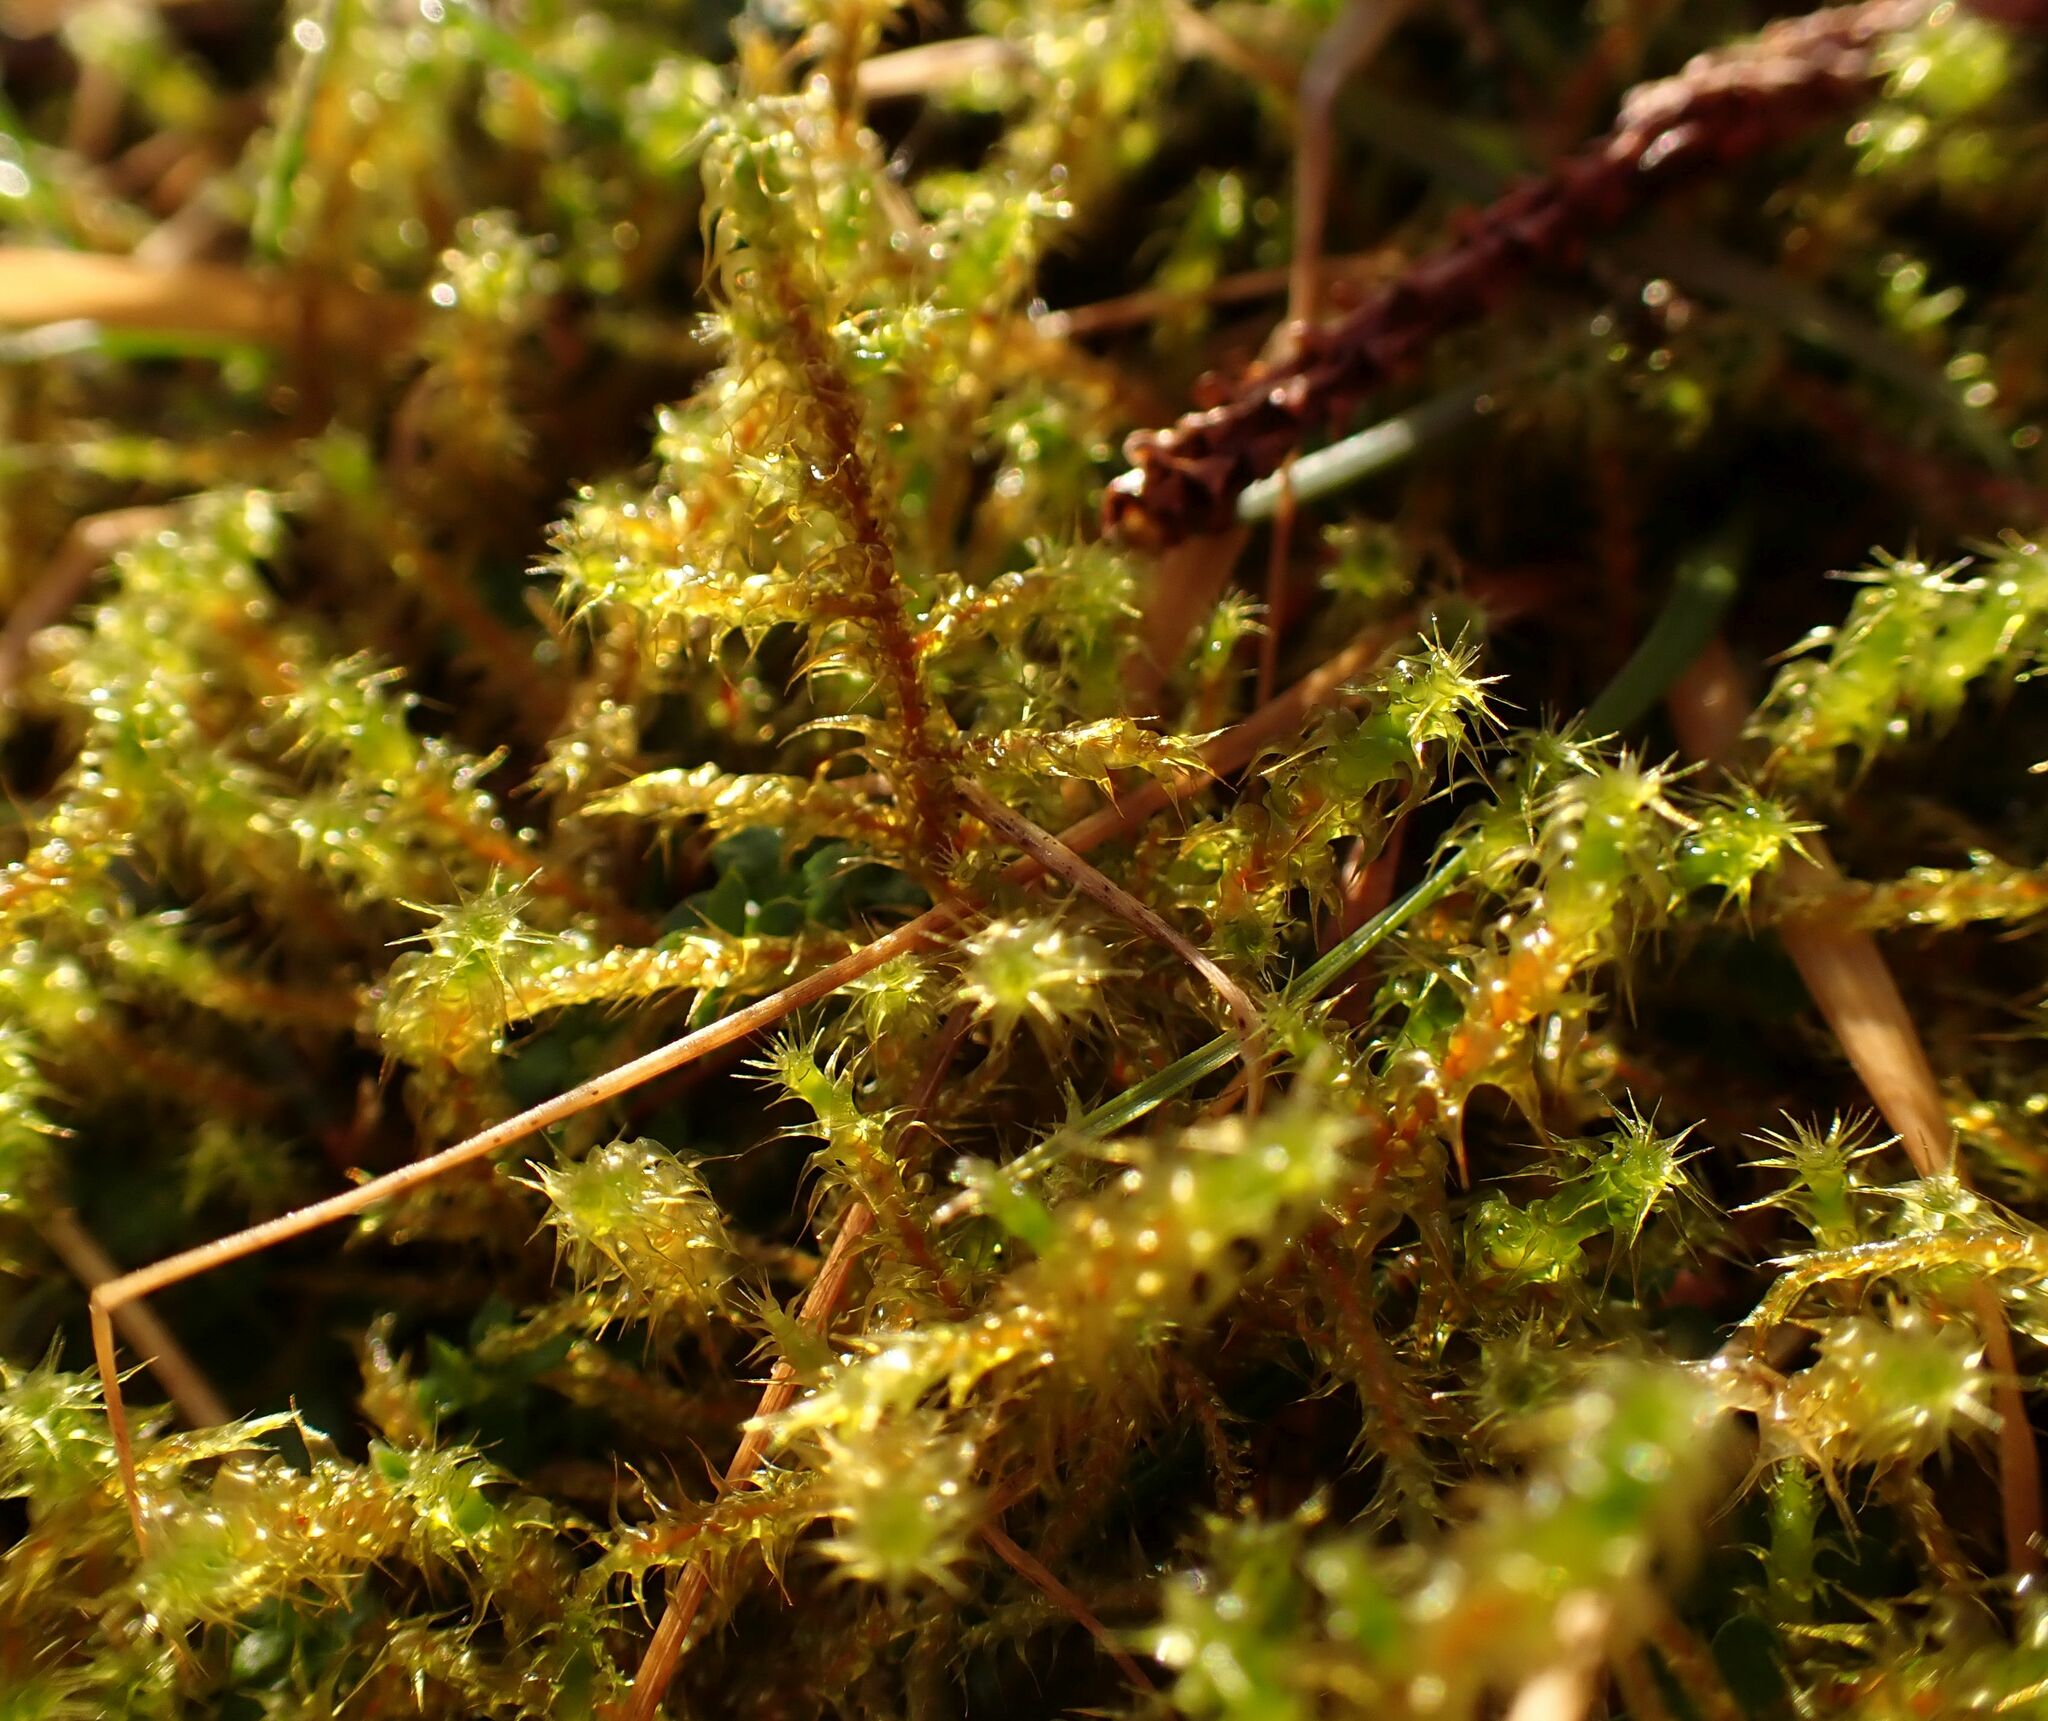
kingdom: Plantae
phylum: Bryophyta
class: Bryopsida
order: Hypnales
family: Hylocomiaceae
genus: Rhytidiadelphus
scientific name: Rhytidiadelphus squarrosus
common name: Springy turf-moss
